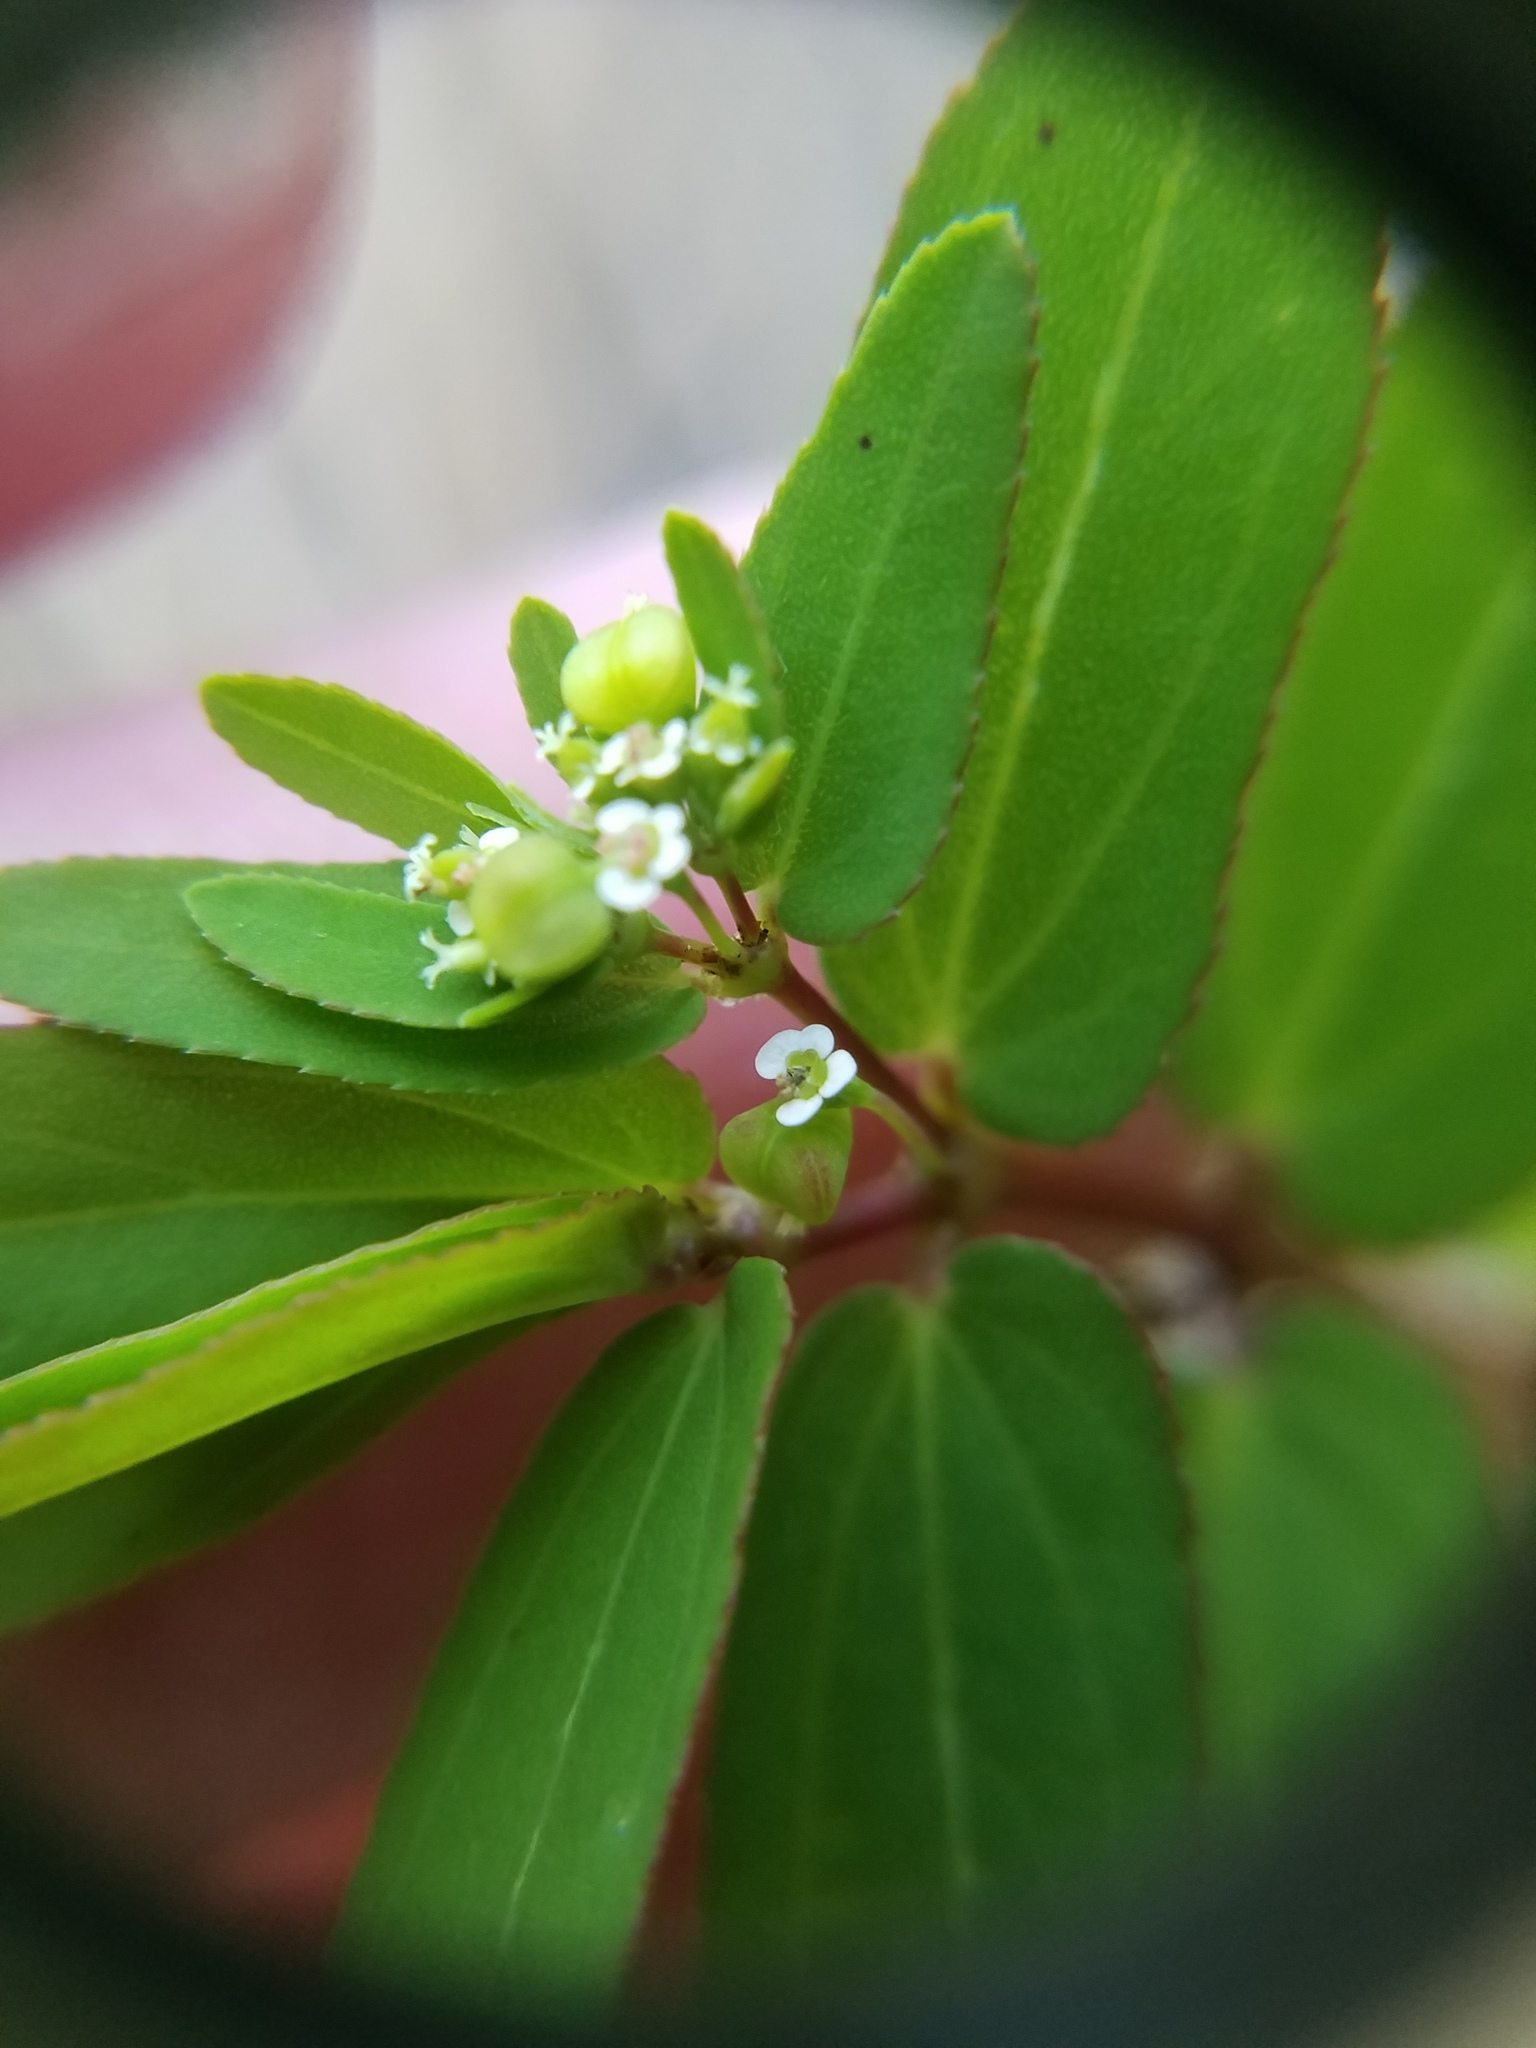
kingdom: Plantae
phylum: Tracheophyta
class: Magnoliopsida
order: Malpighiales
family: Euphorbiaceae
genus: Euphorbia
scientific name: Euphorbia hyssopifolia
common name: Hyssopleaf sandmat
